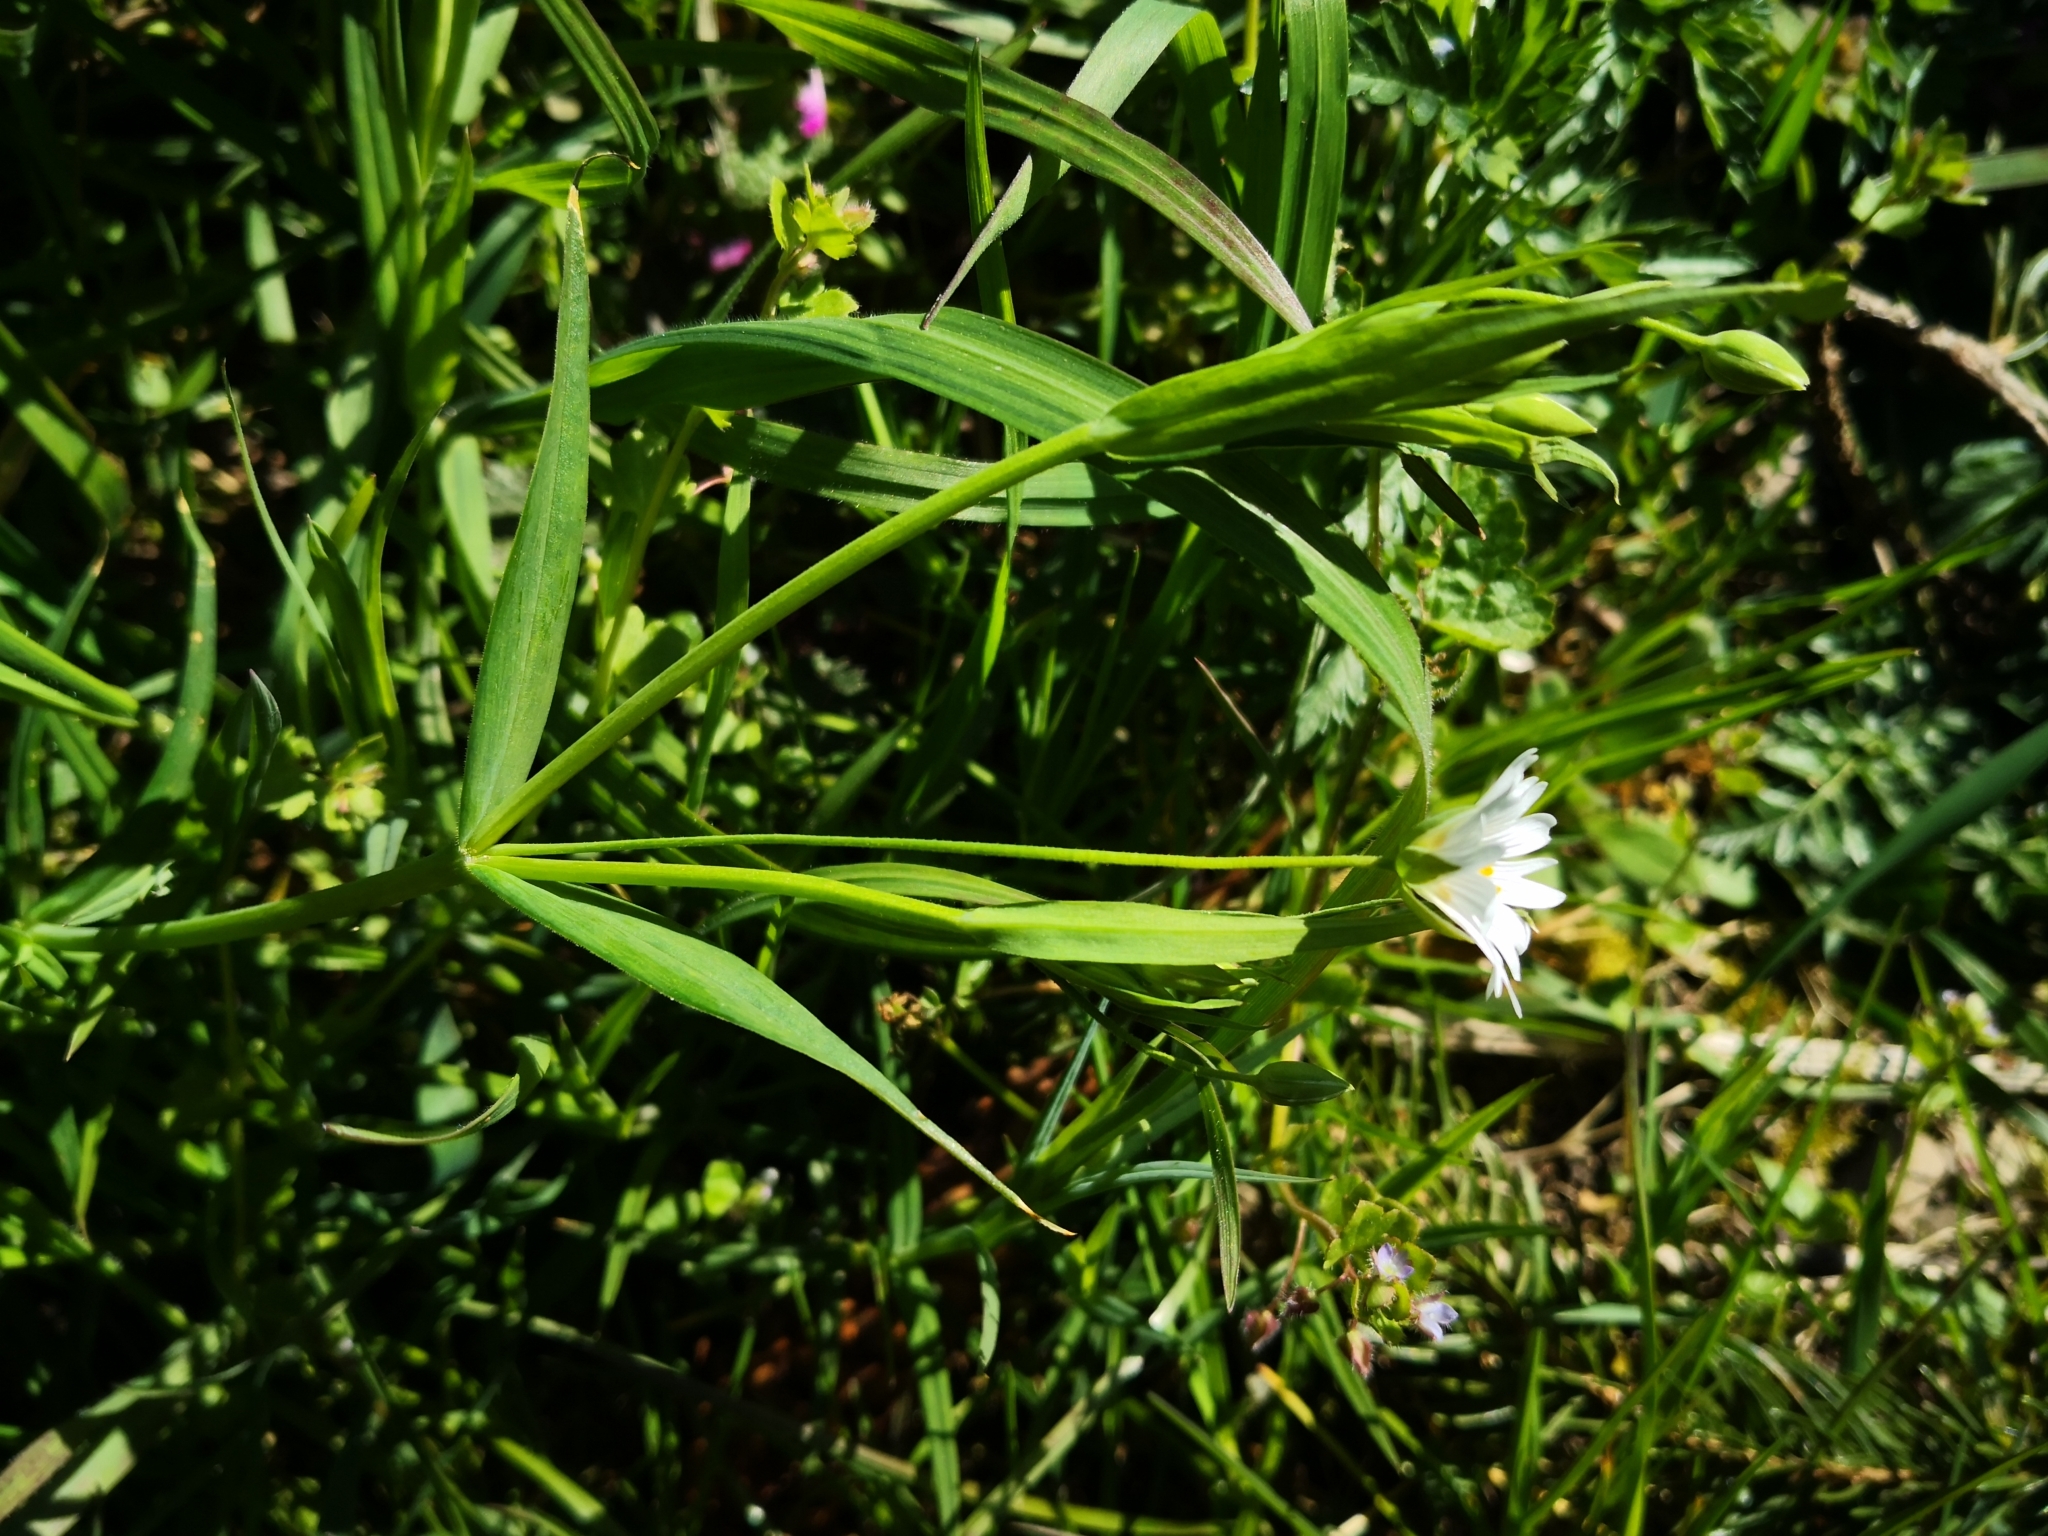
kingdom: Plantae
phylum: Tracheophyta
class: Magnoliopsida
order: Caryophyllales
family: Caryophyllaceae
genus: Rabelera
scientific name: Rabelera holostea
